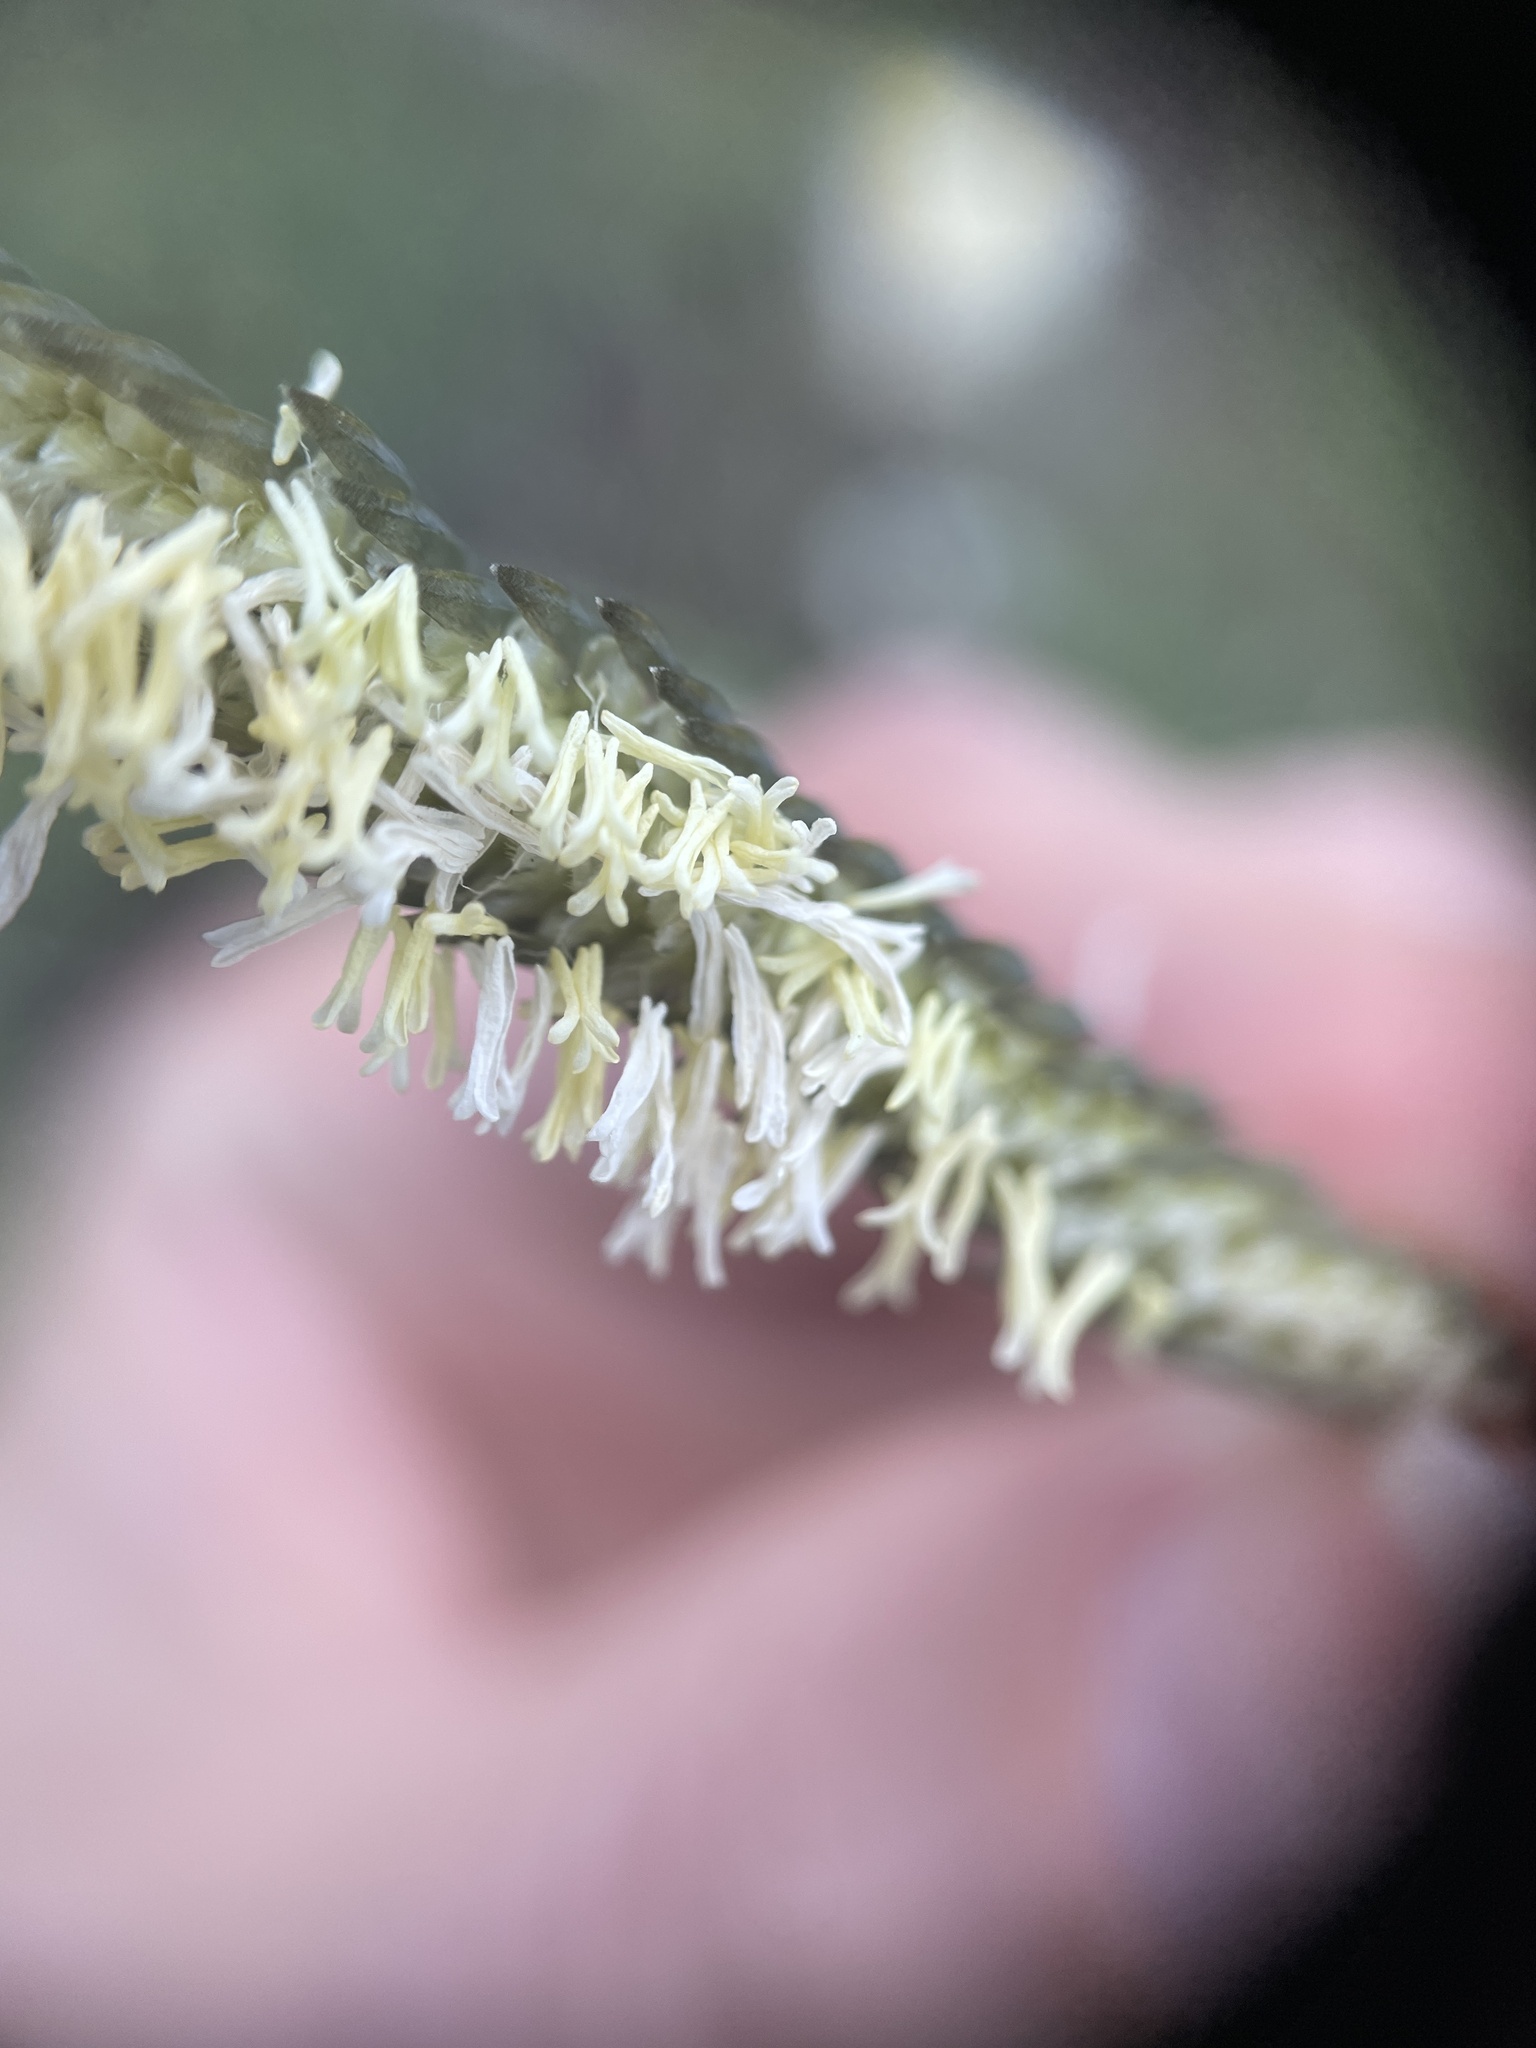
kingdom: Plantae
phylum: Tracheophyta
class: Liliopsida
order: Poales
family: Poaceae
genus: Harpochloa
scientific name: Harpochloa falx
